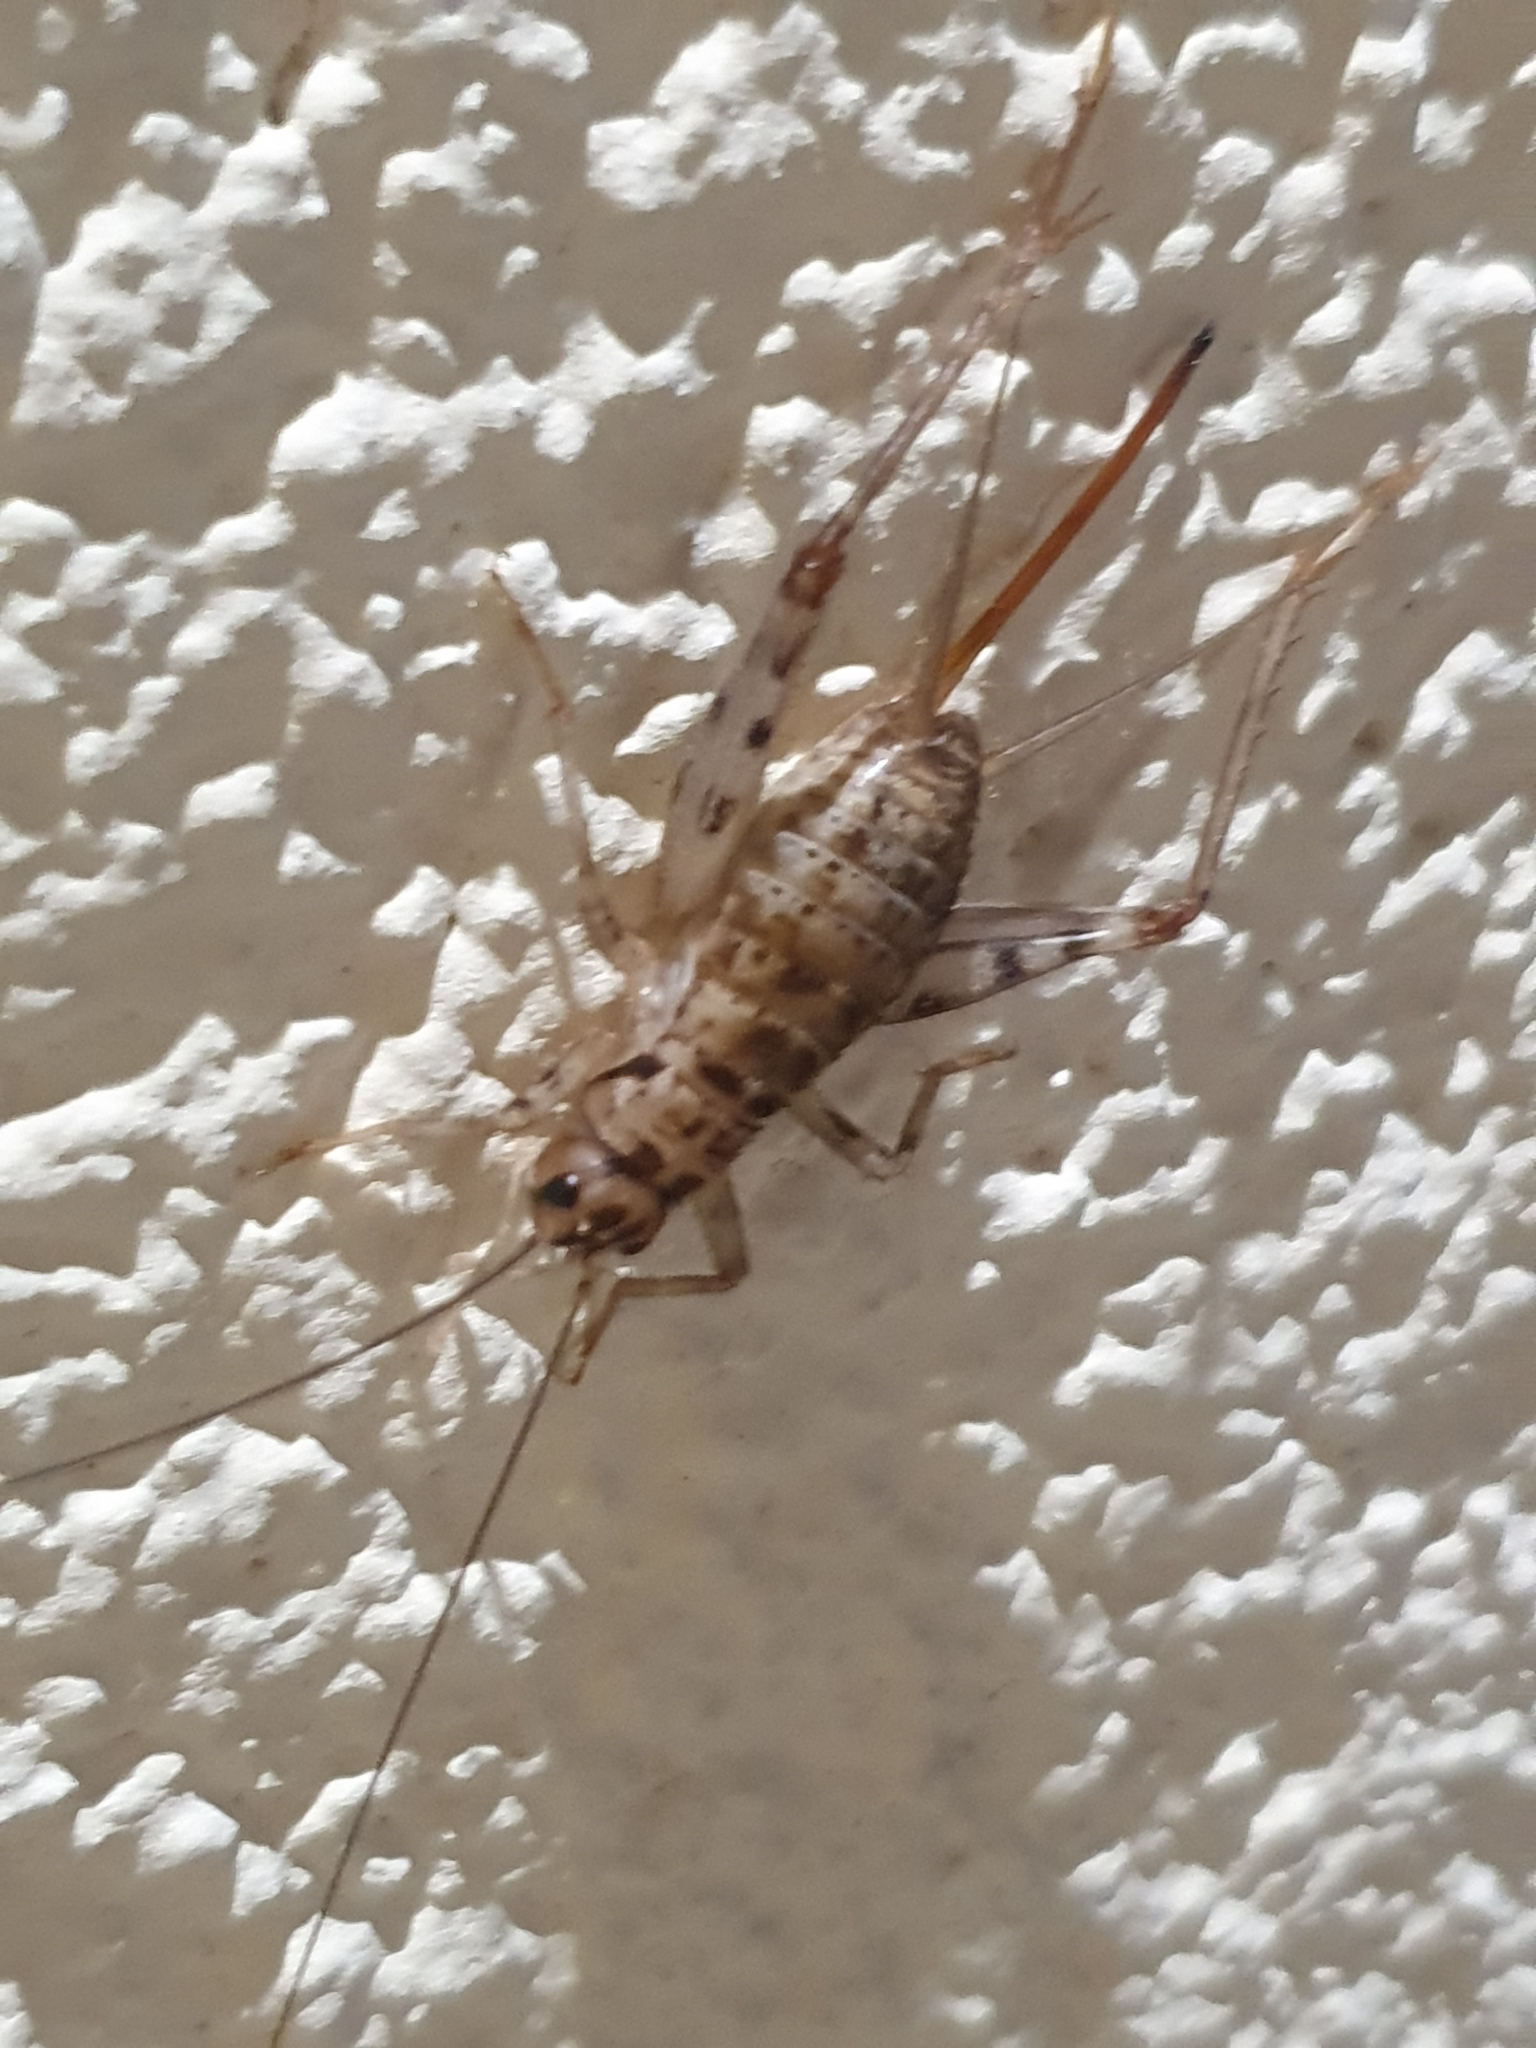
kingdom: Animalia
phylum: Arthropoda
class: Insecta
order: Orthoptera
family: Gryllidae
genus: Gryllomorpha
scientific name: Gryllomorpha dalmatina
